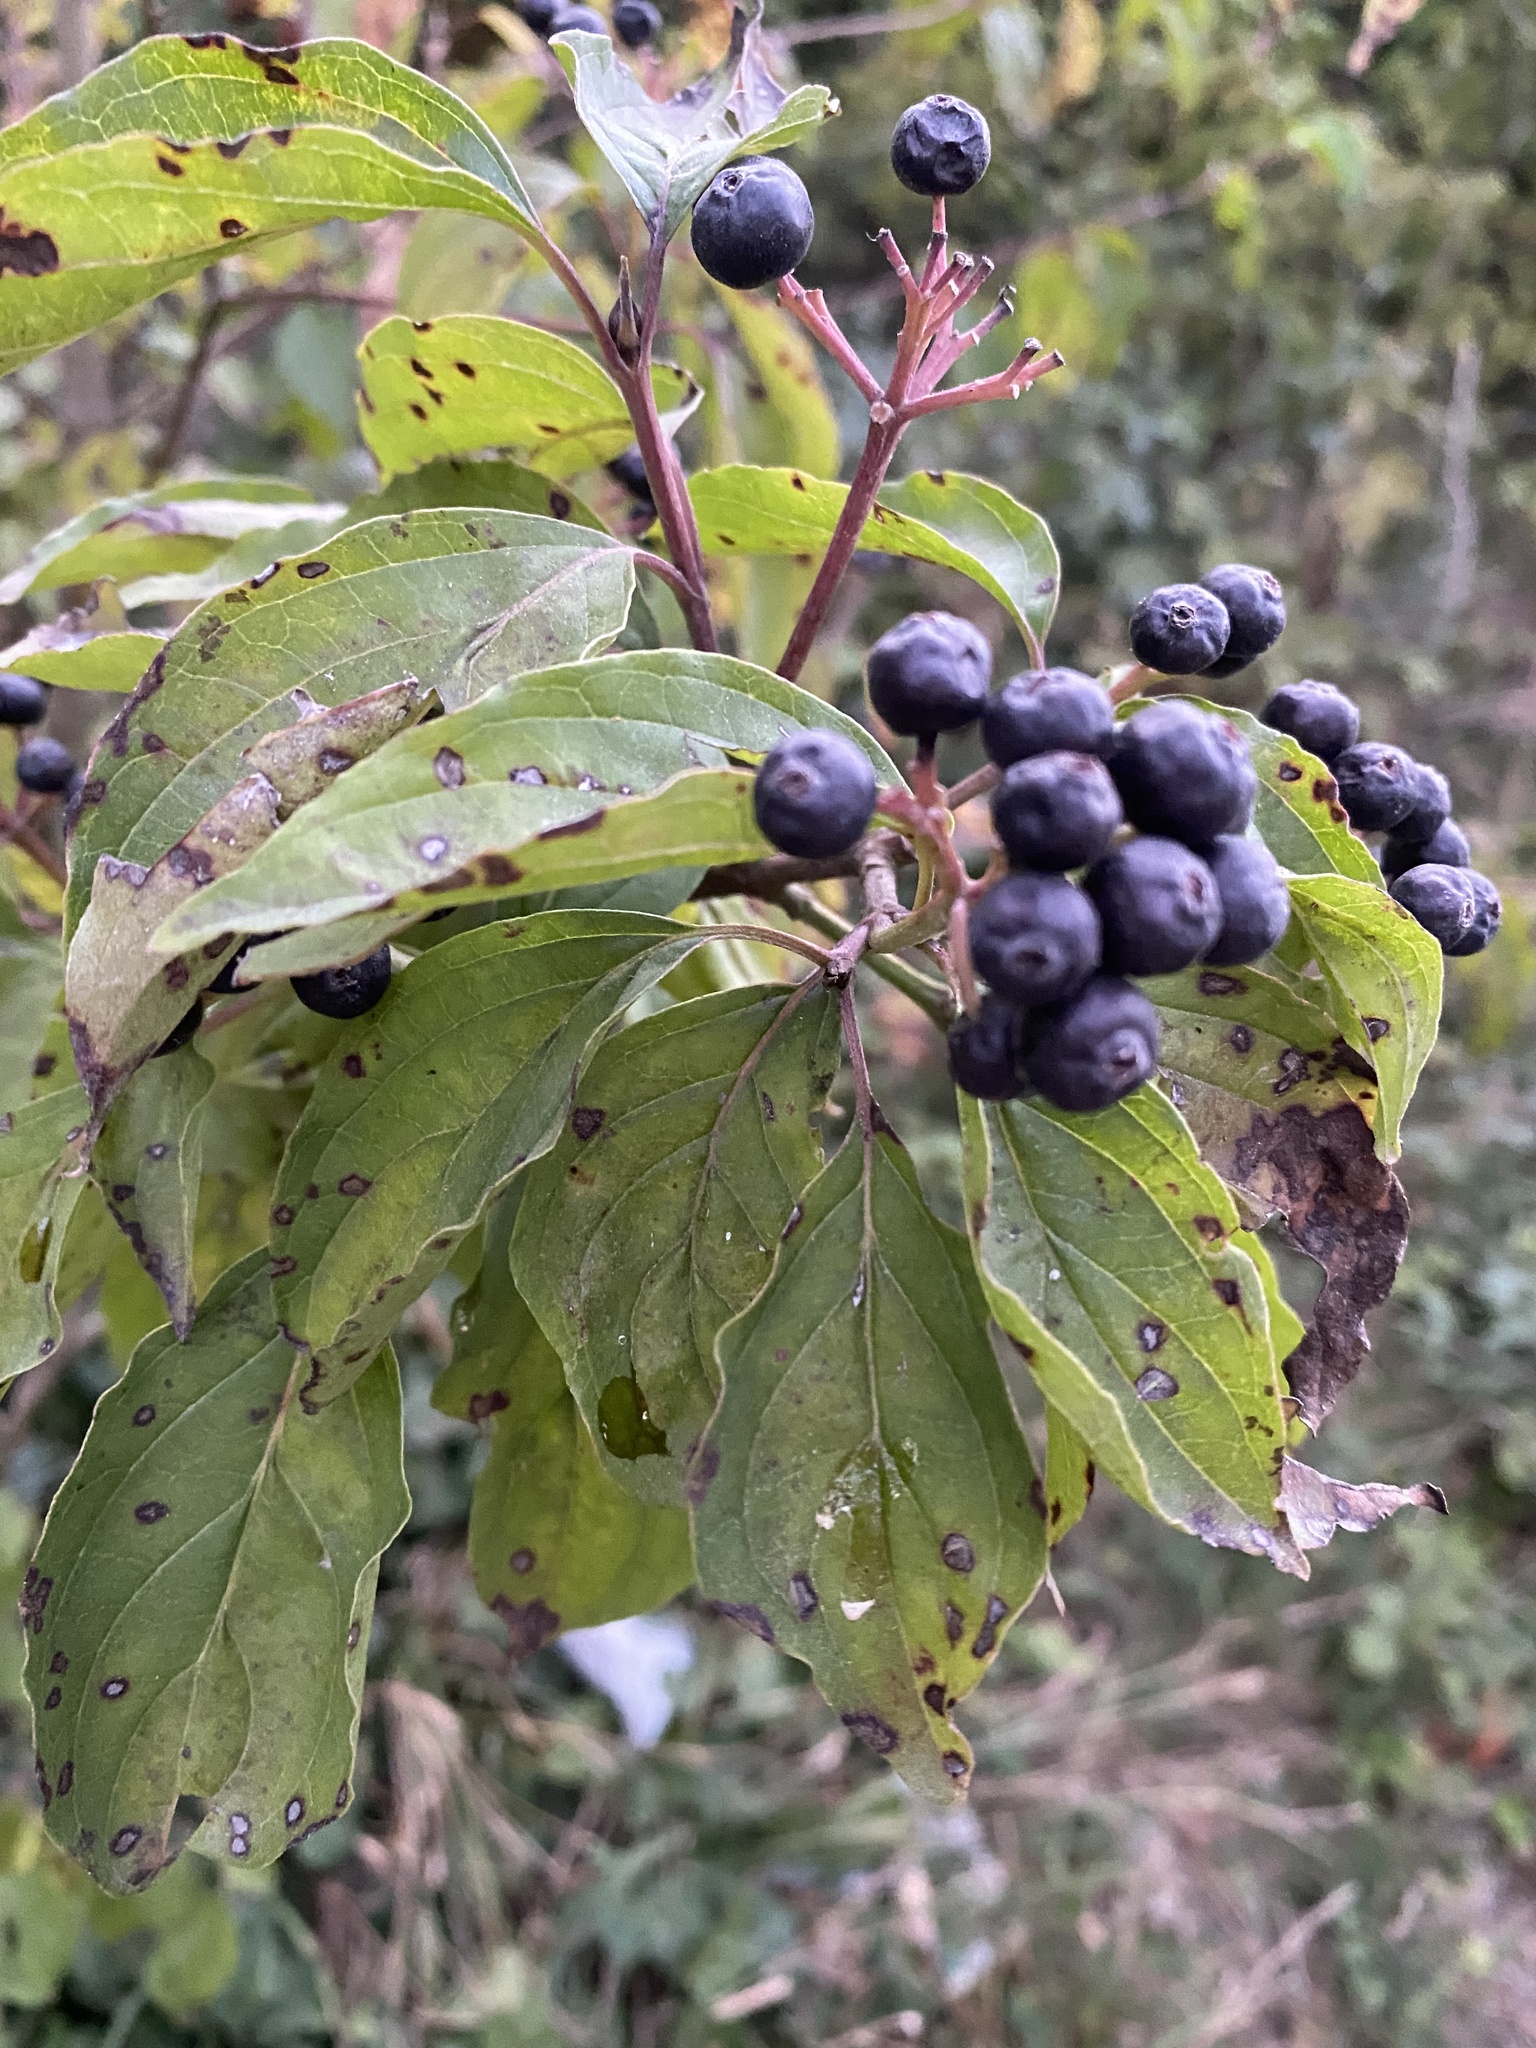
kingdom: Plantae
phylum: Tracheophyta
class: Magnoliopsida
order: Cornales
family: Cornaceae
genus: Cornus
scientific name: Cornus sanguinea
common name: Dogwood
